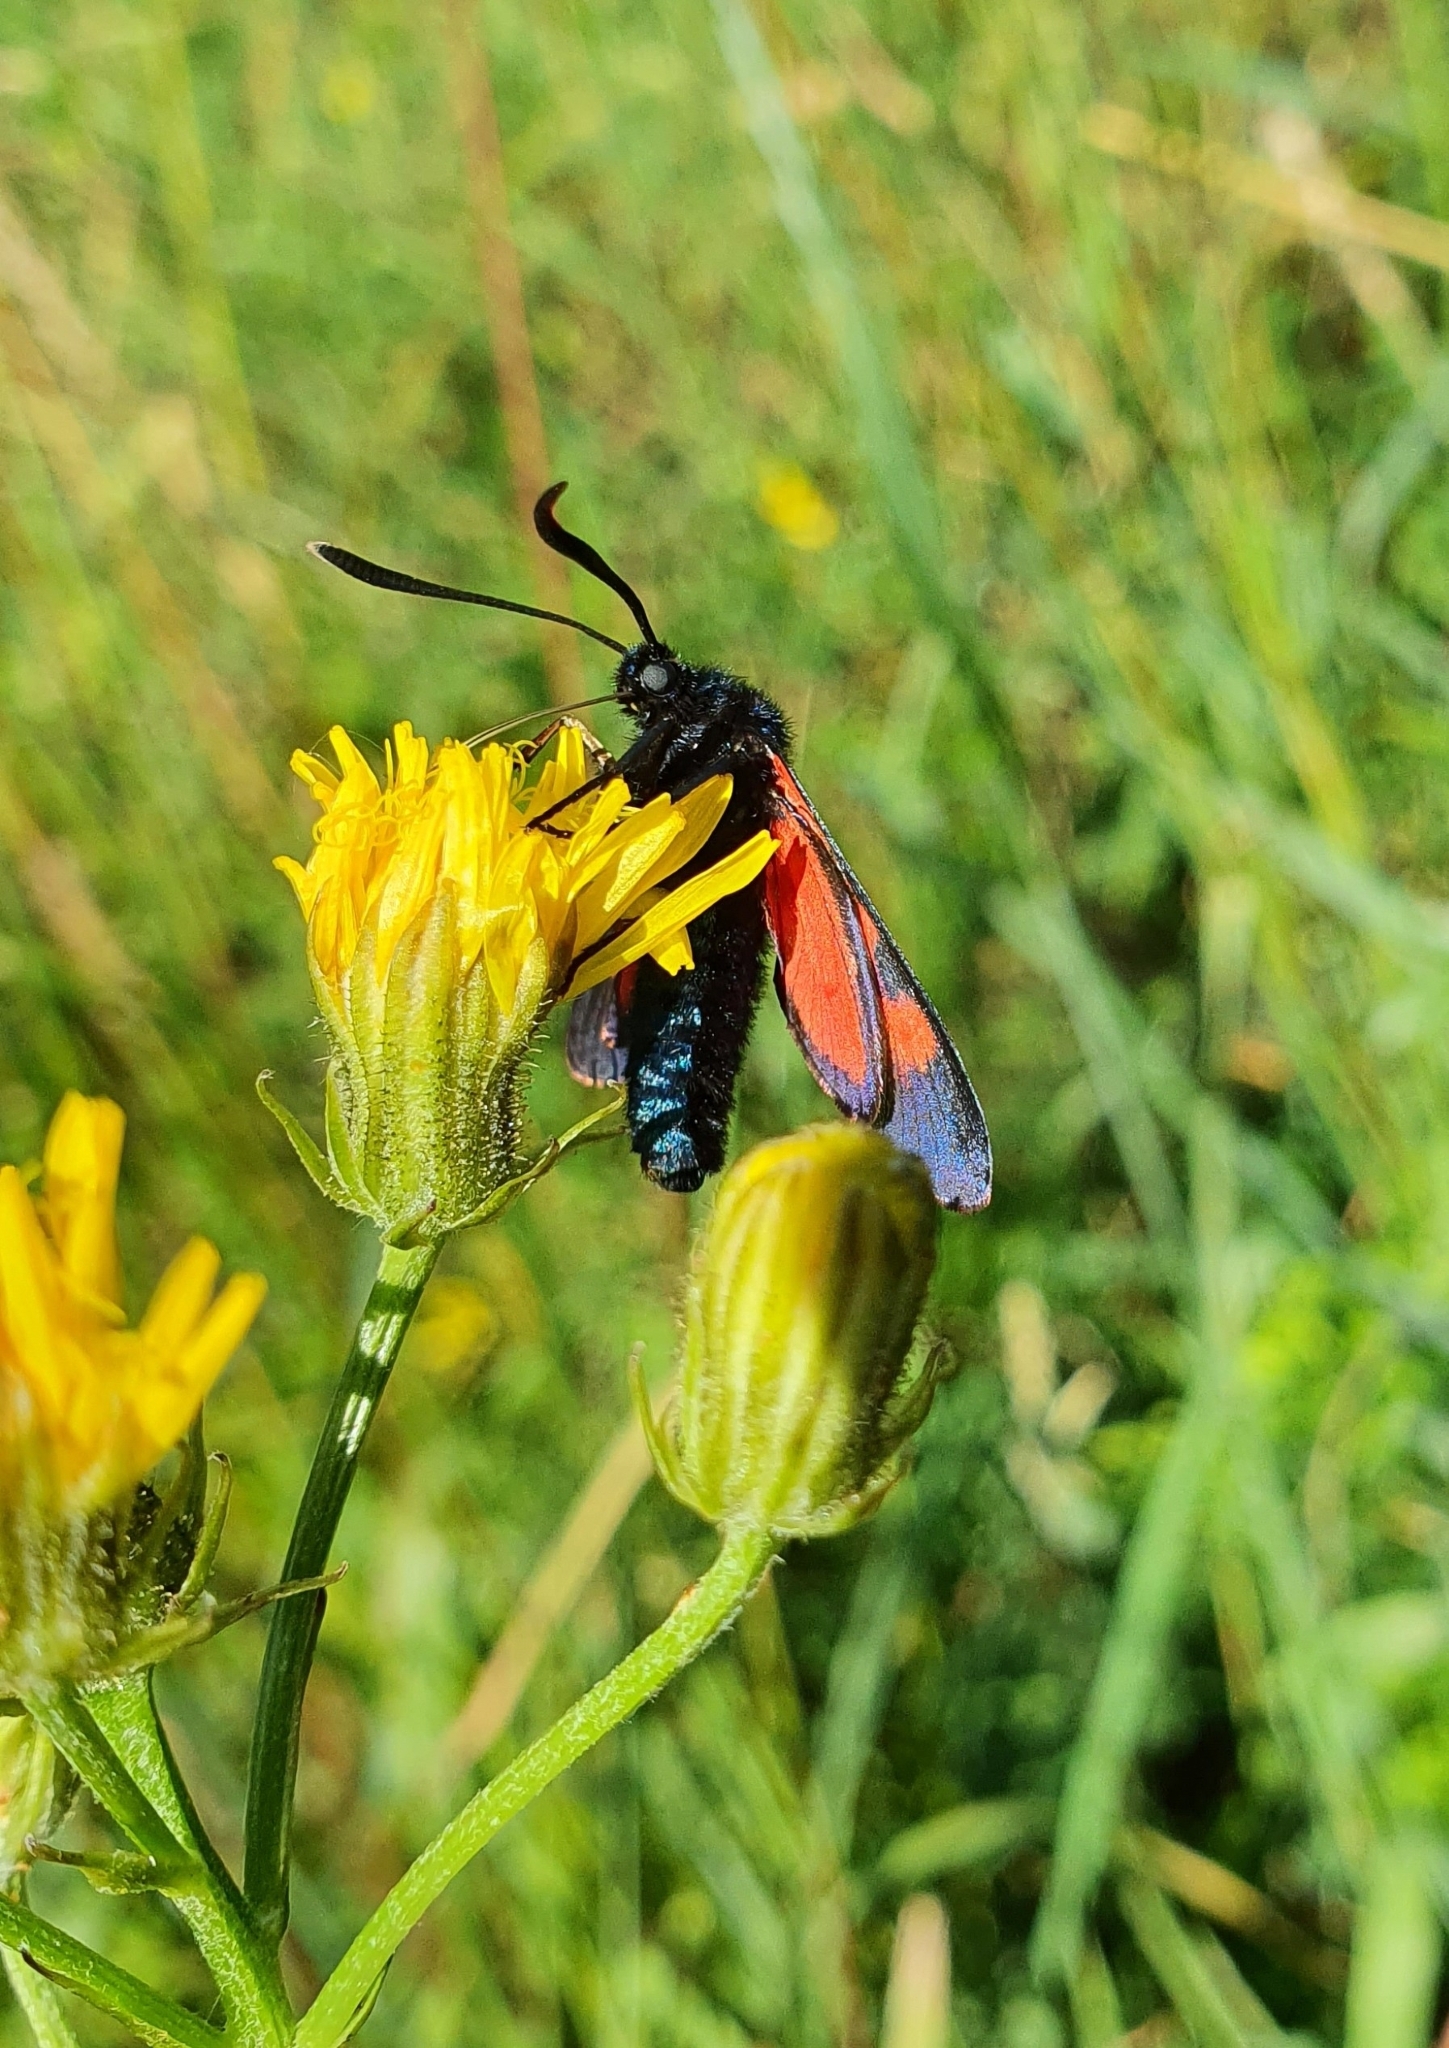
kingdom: Animalia
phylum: Arthropoda
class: Insecta
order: Lepidoptera
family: Zygaenidae
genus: Zygaena
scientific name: Zygaena lonicerae
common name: Narrow-bordered five-spot burnet
